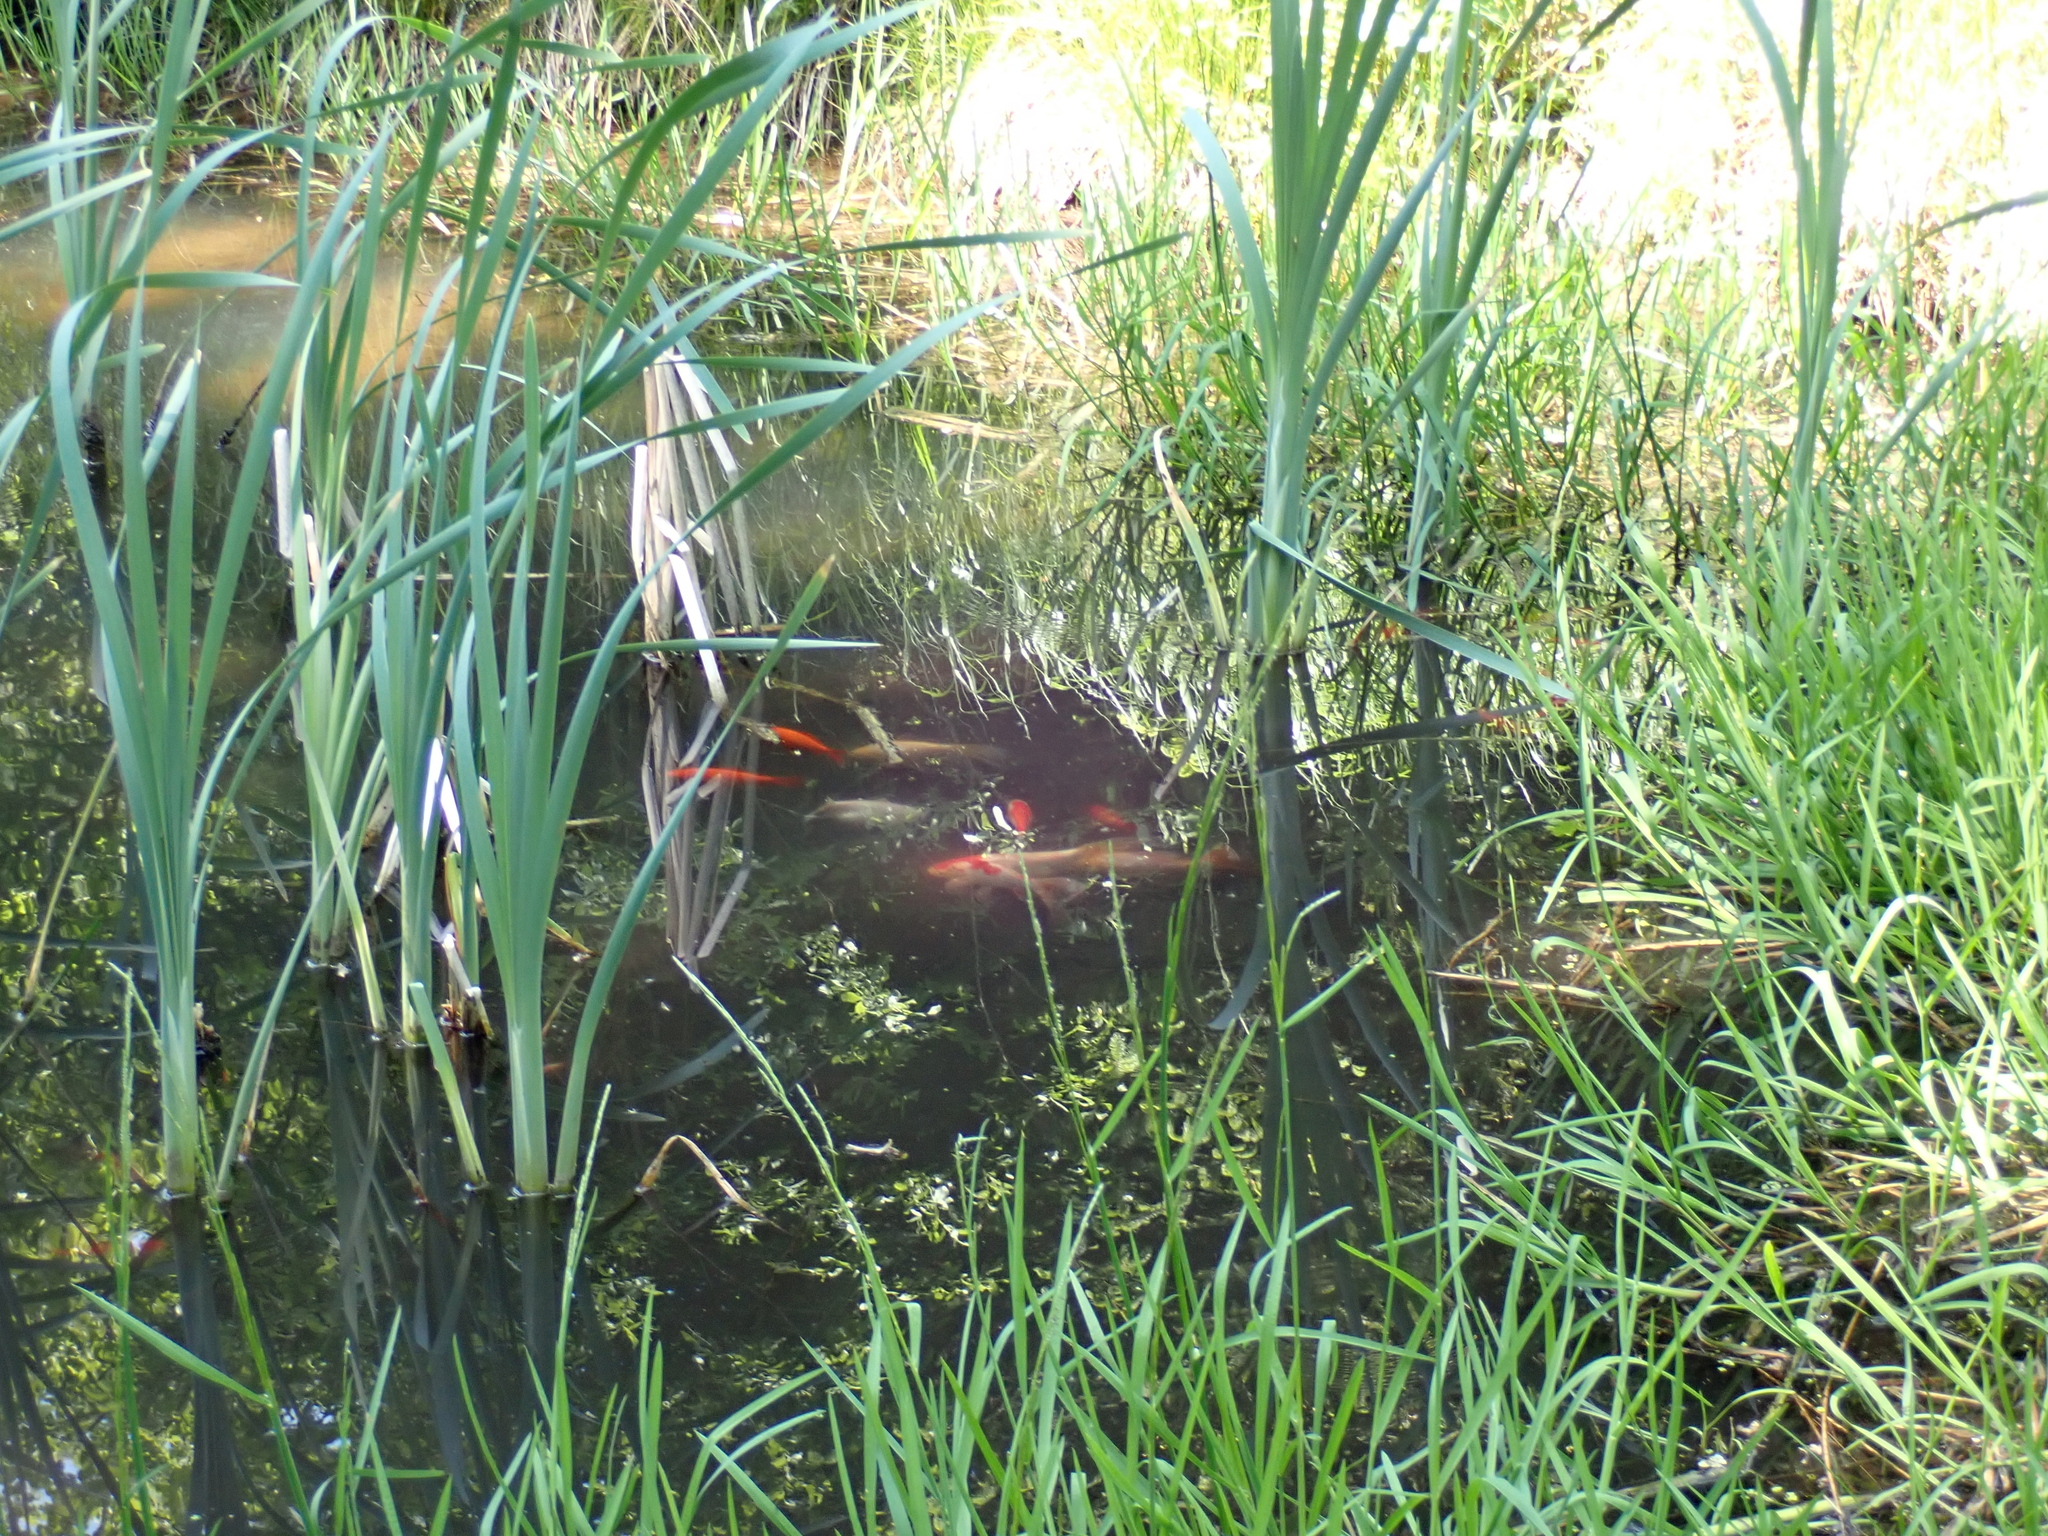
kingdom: Animalia
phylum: Chordata
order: Cypriniformes
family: Cyprinidae
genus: Cyprinus
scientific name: Cyprinus rubrofuscus
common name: Koi
